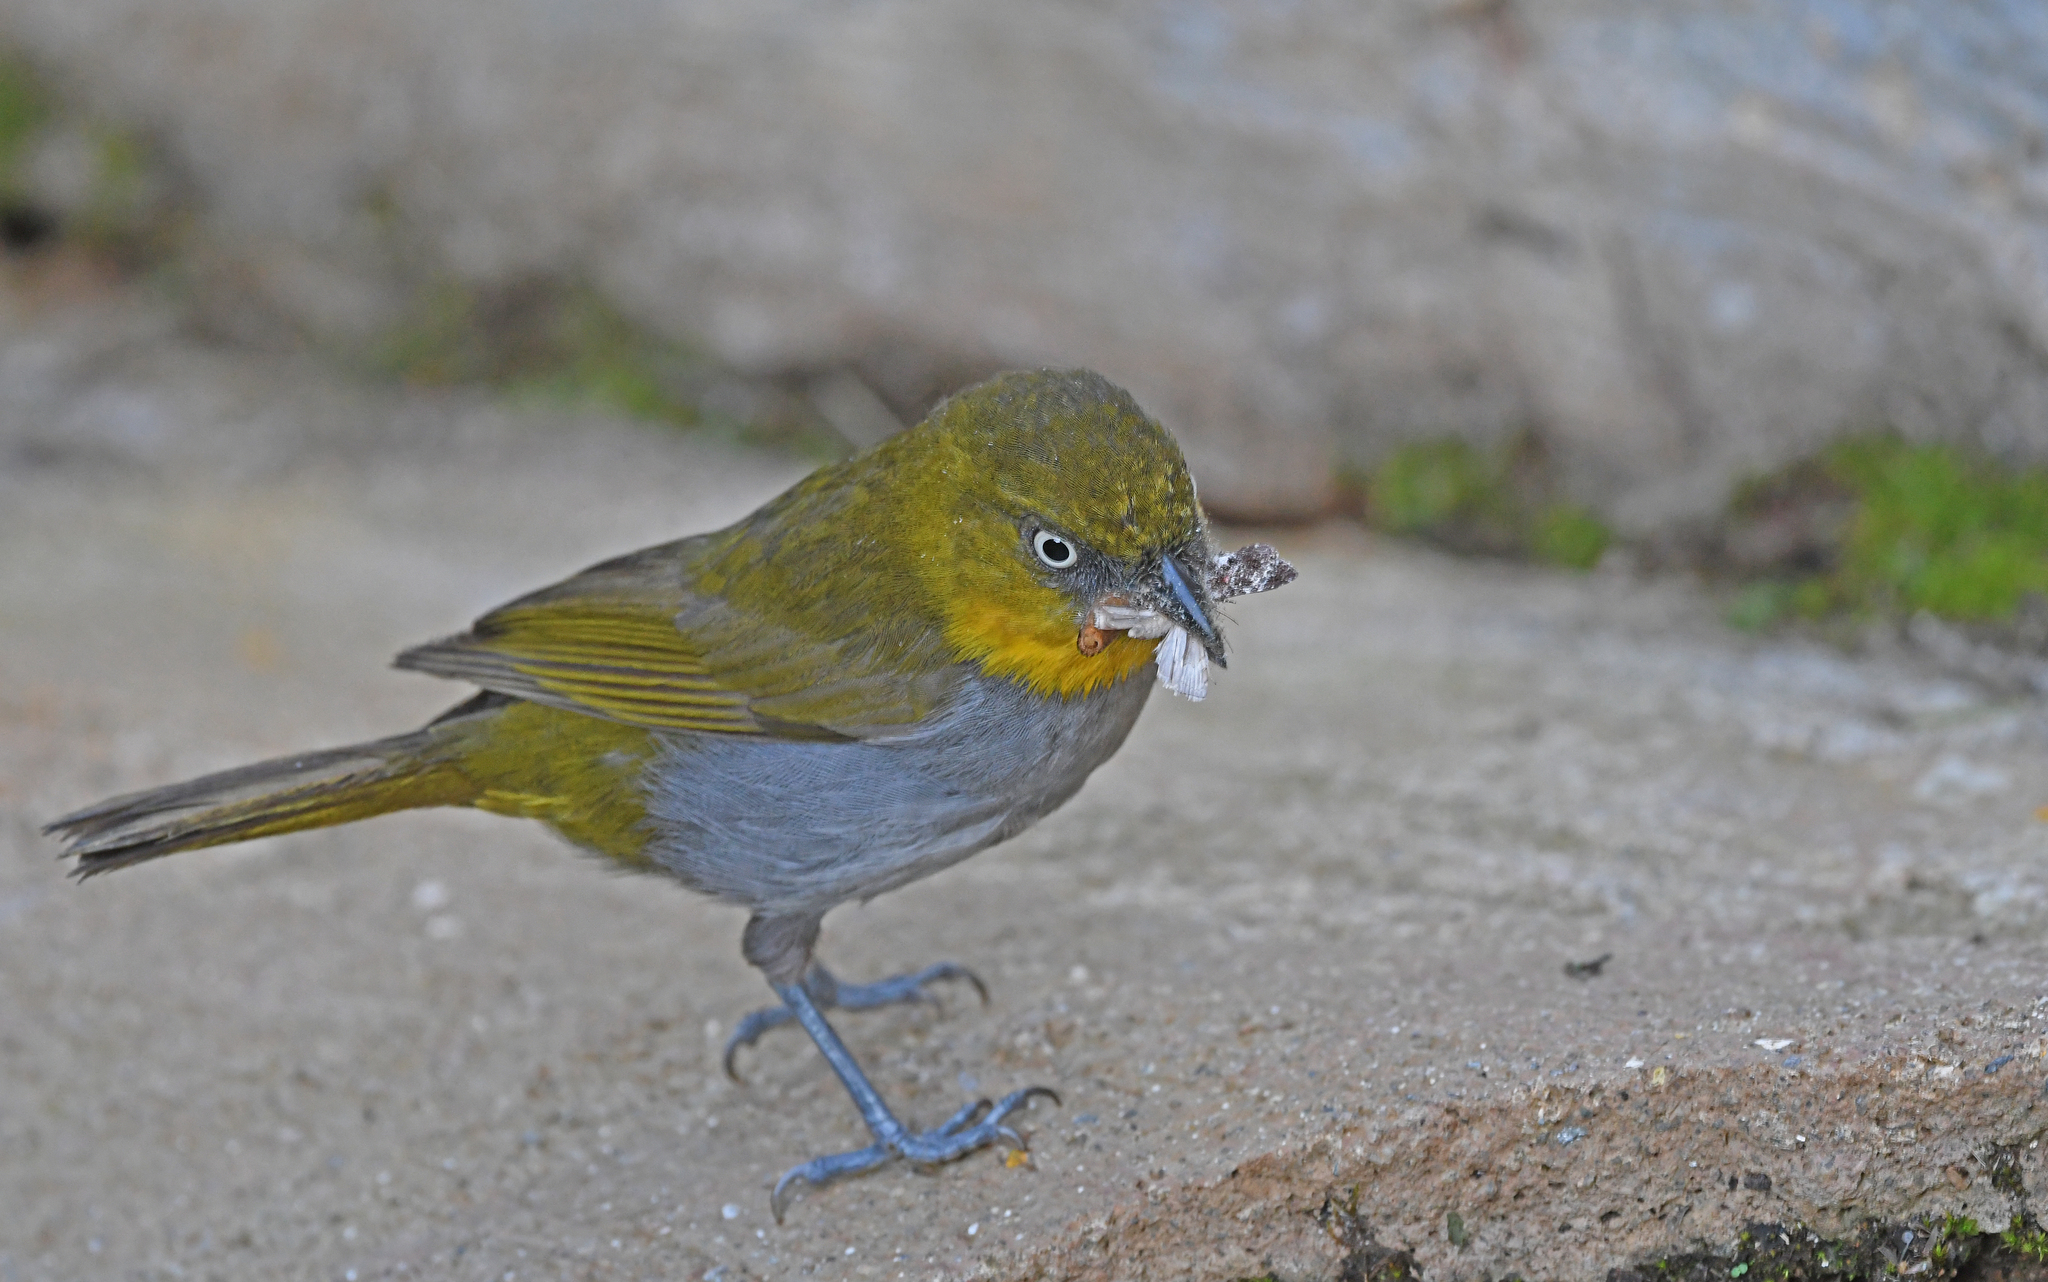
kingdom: Animalia
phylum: Chordata
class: Aves
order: Passeriformes
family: Passerellidae
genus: Chlorospingus
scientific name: Chlorospingus flavigularis
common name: Yellow-throated bush-tanager
